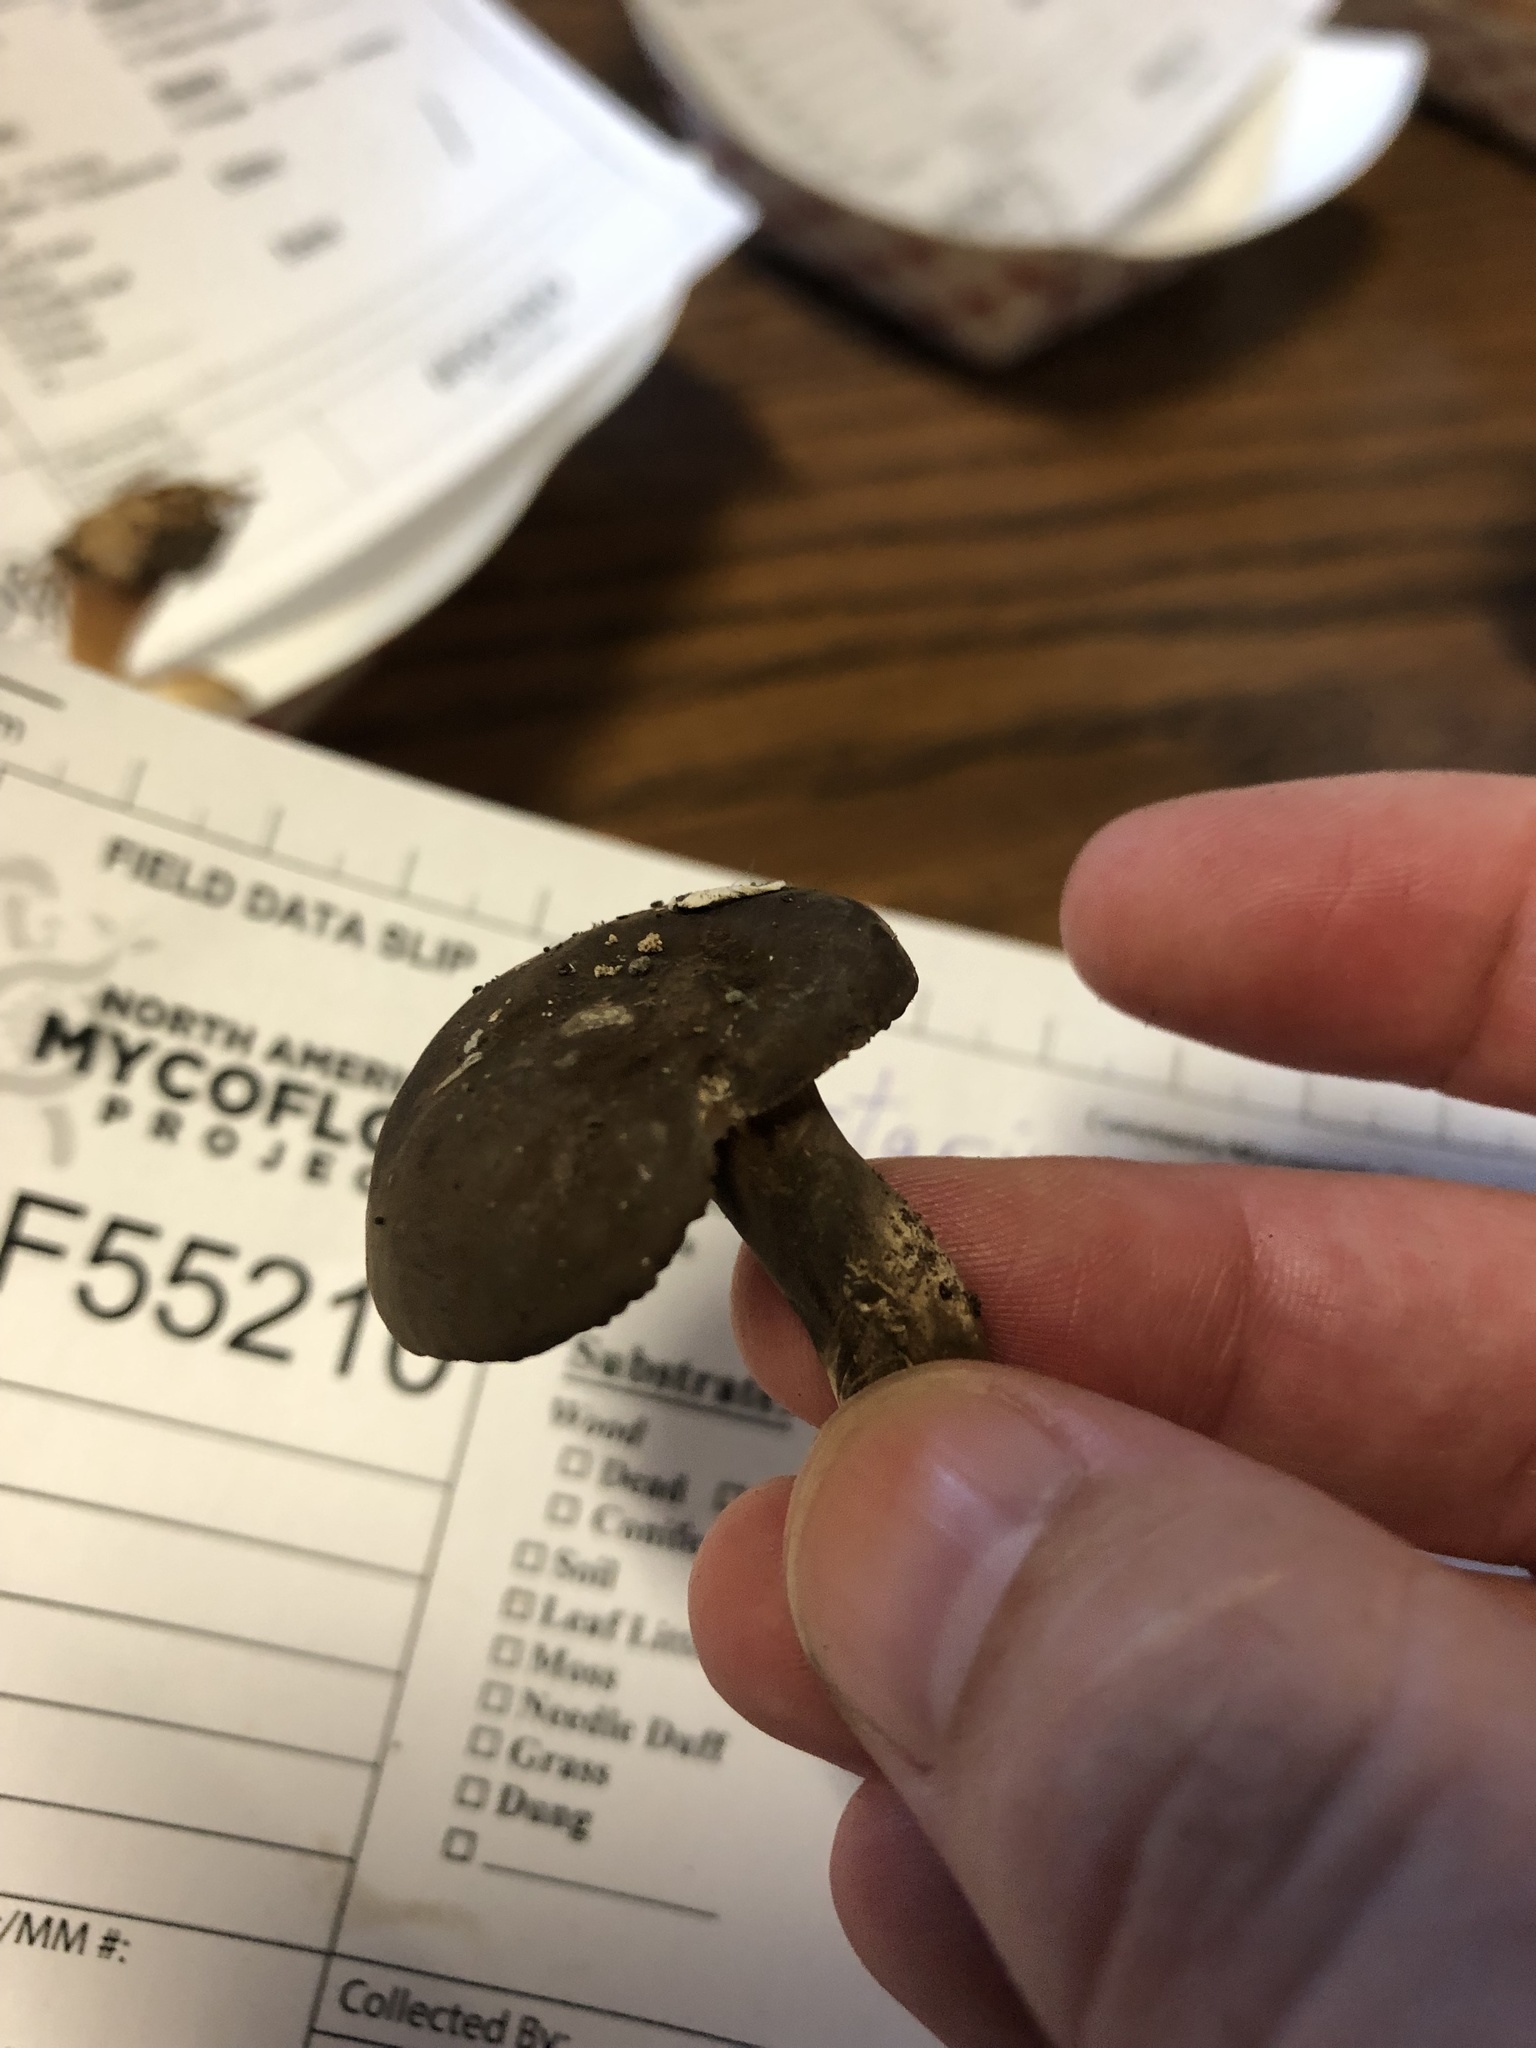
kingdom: Fungi
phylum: Basidiomycota
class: Agaricomycetes
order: Russulales
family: Russulaceae
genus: Lactarius
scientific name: Lactarius lignyotus
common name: Velvet milkcap
